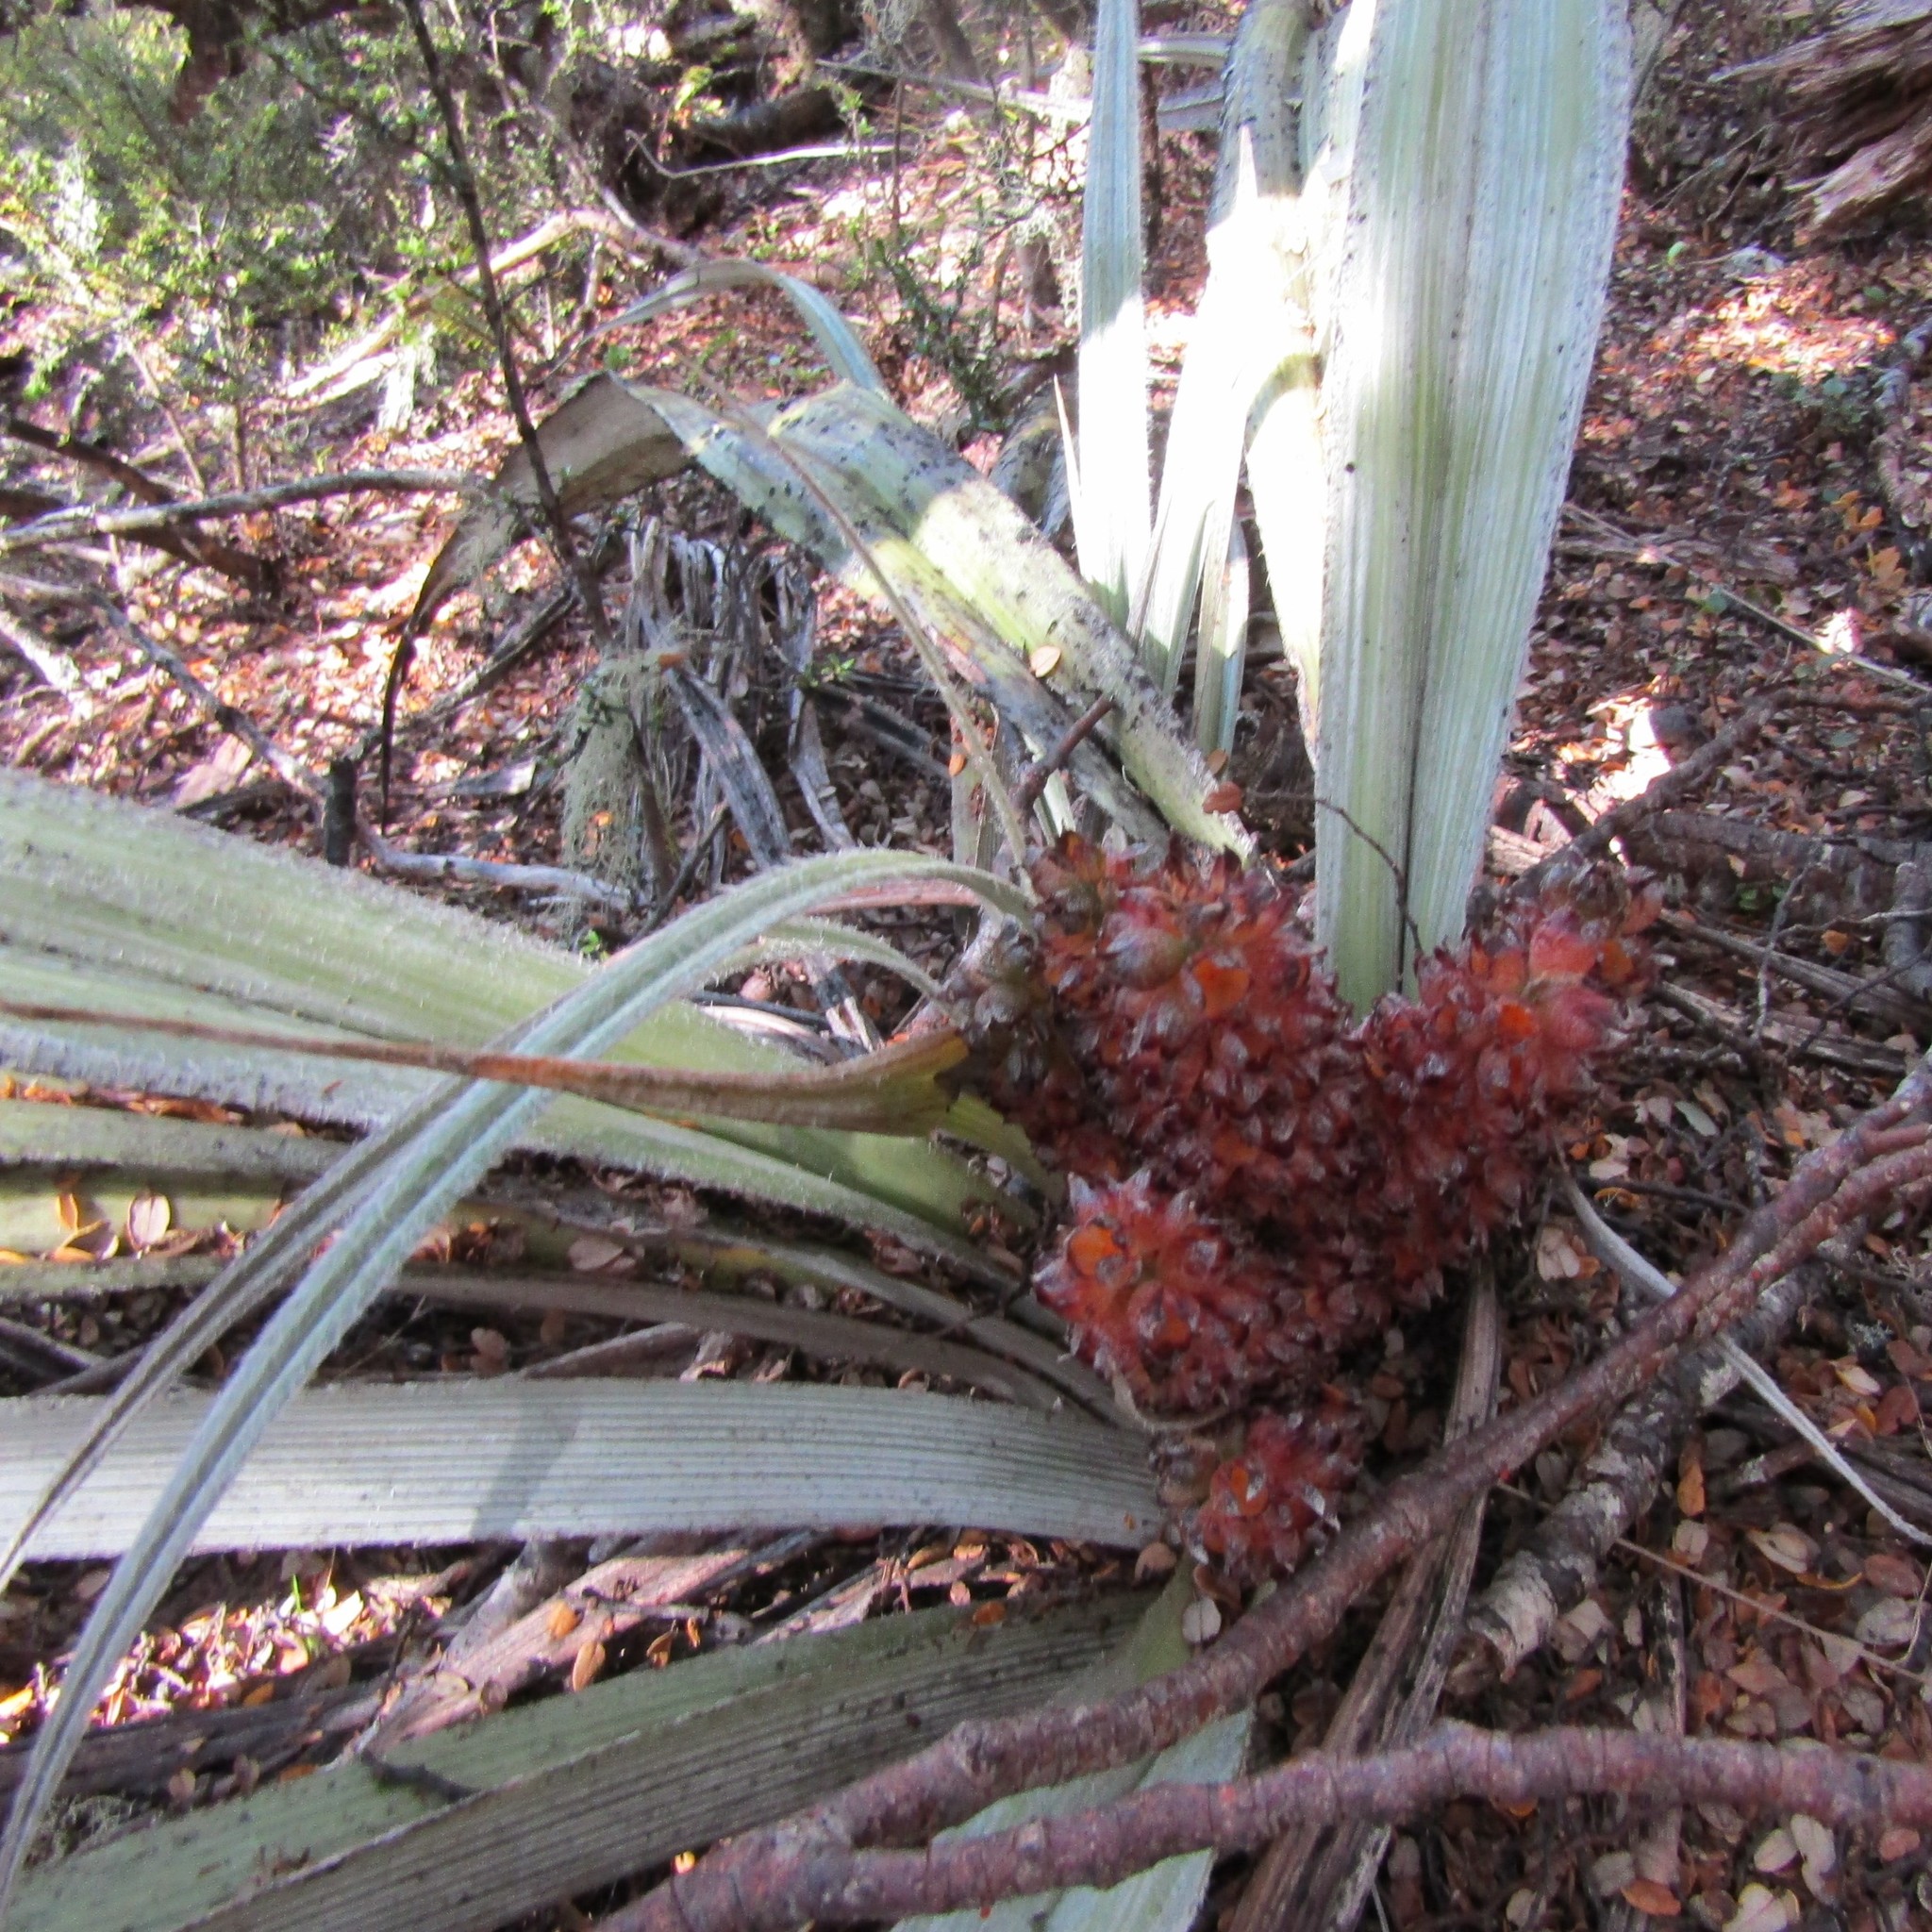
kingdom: Plantae
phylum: Tracheophyta
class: Liliopsida
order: Asparagales
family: Asteliaceae
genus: Astelia
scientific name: Astelia nervosa
